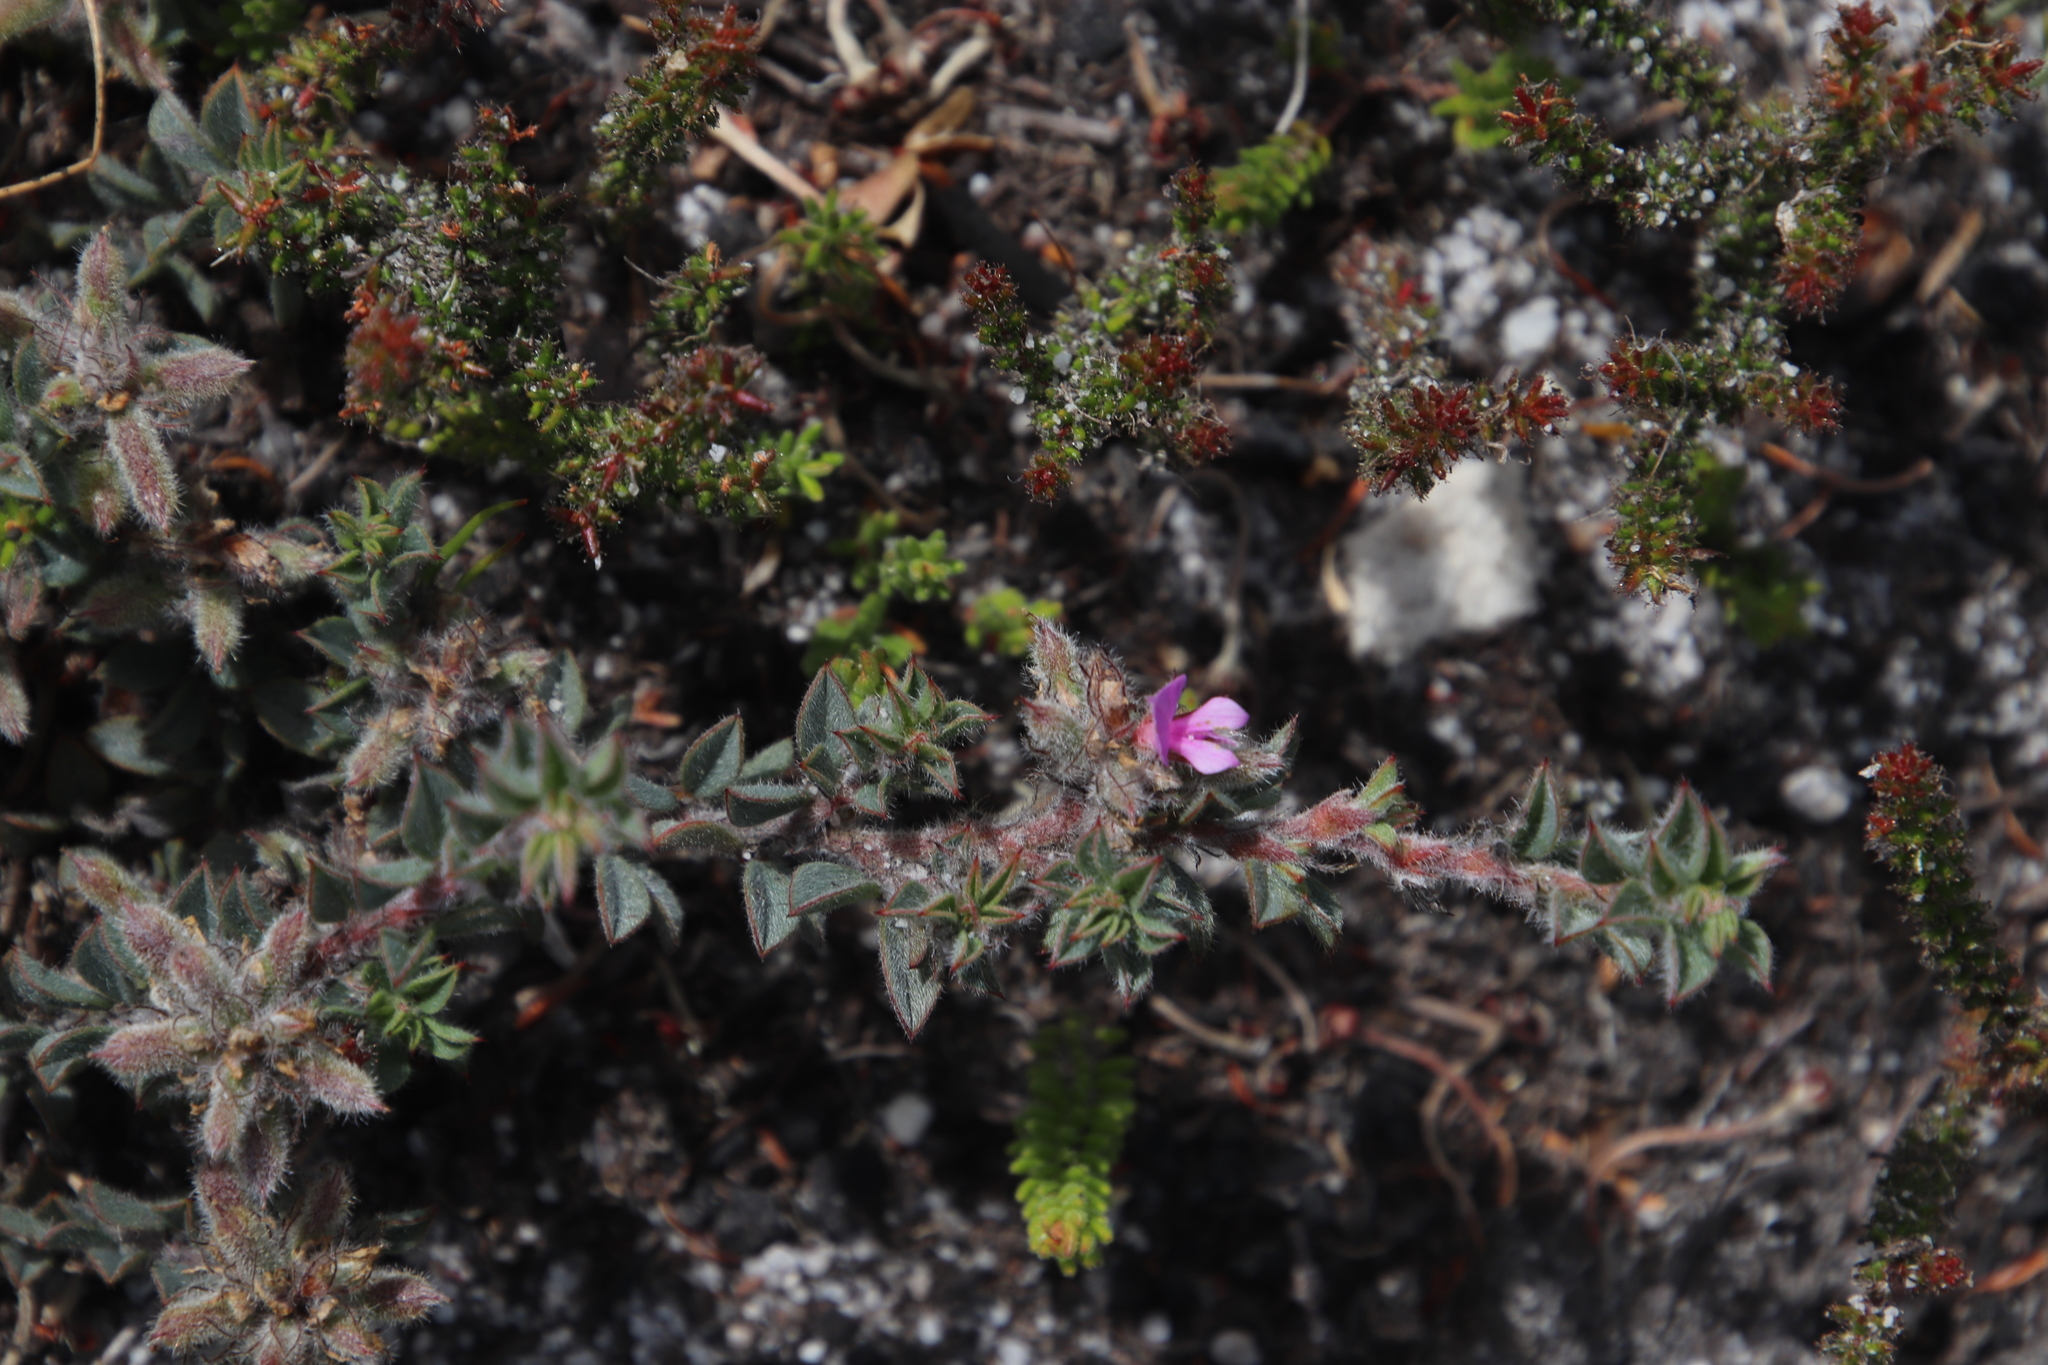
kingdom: Plantae
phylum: Tracheophyta
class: Magnoliopsida
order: Fabales
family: Fabaceae
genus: Indigofera
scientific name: Indigofera glomerata
